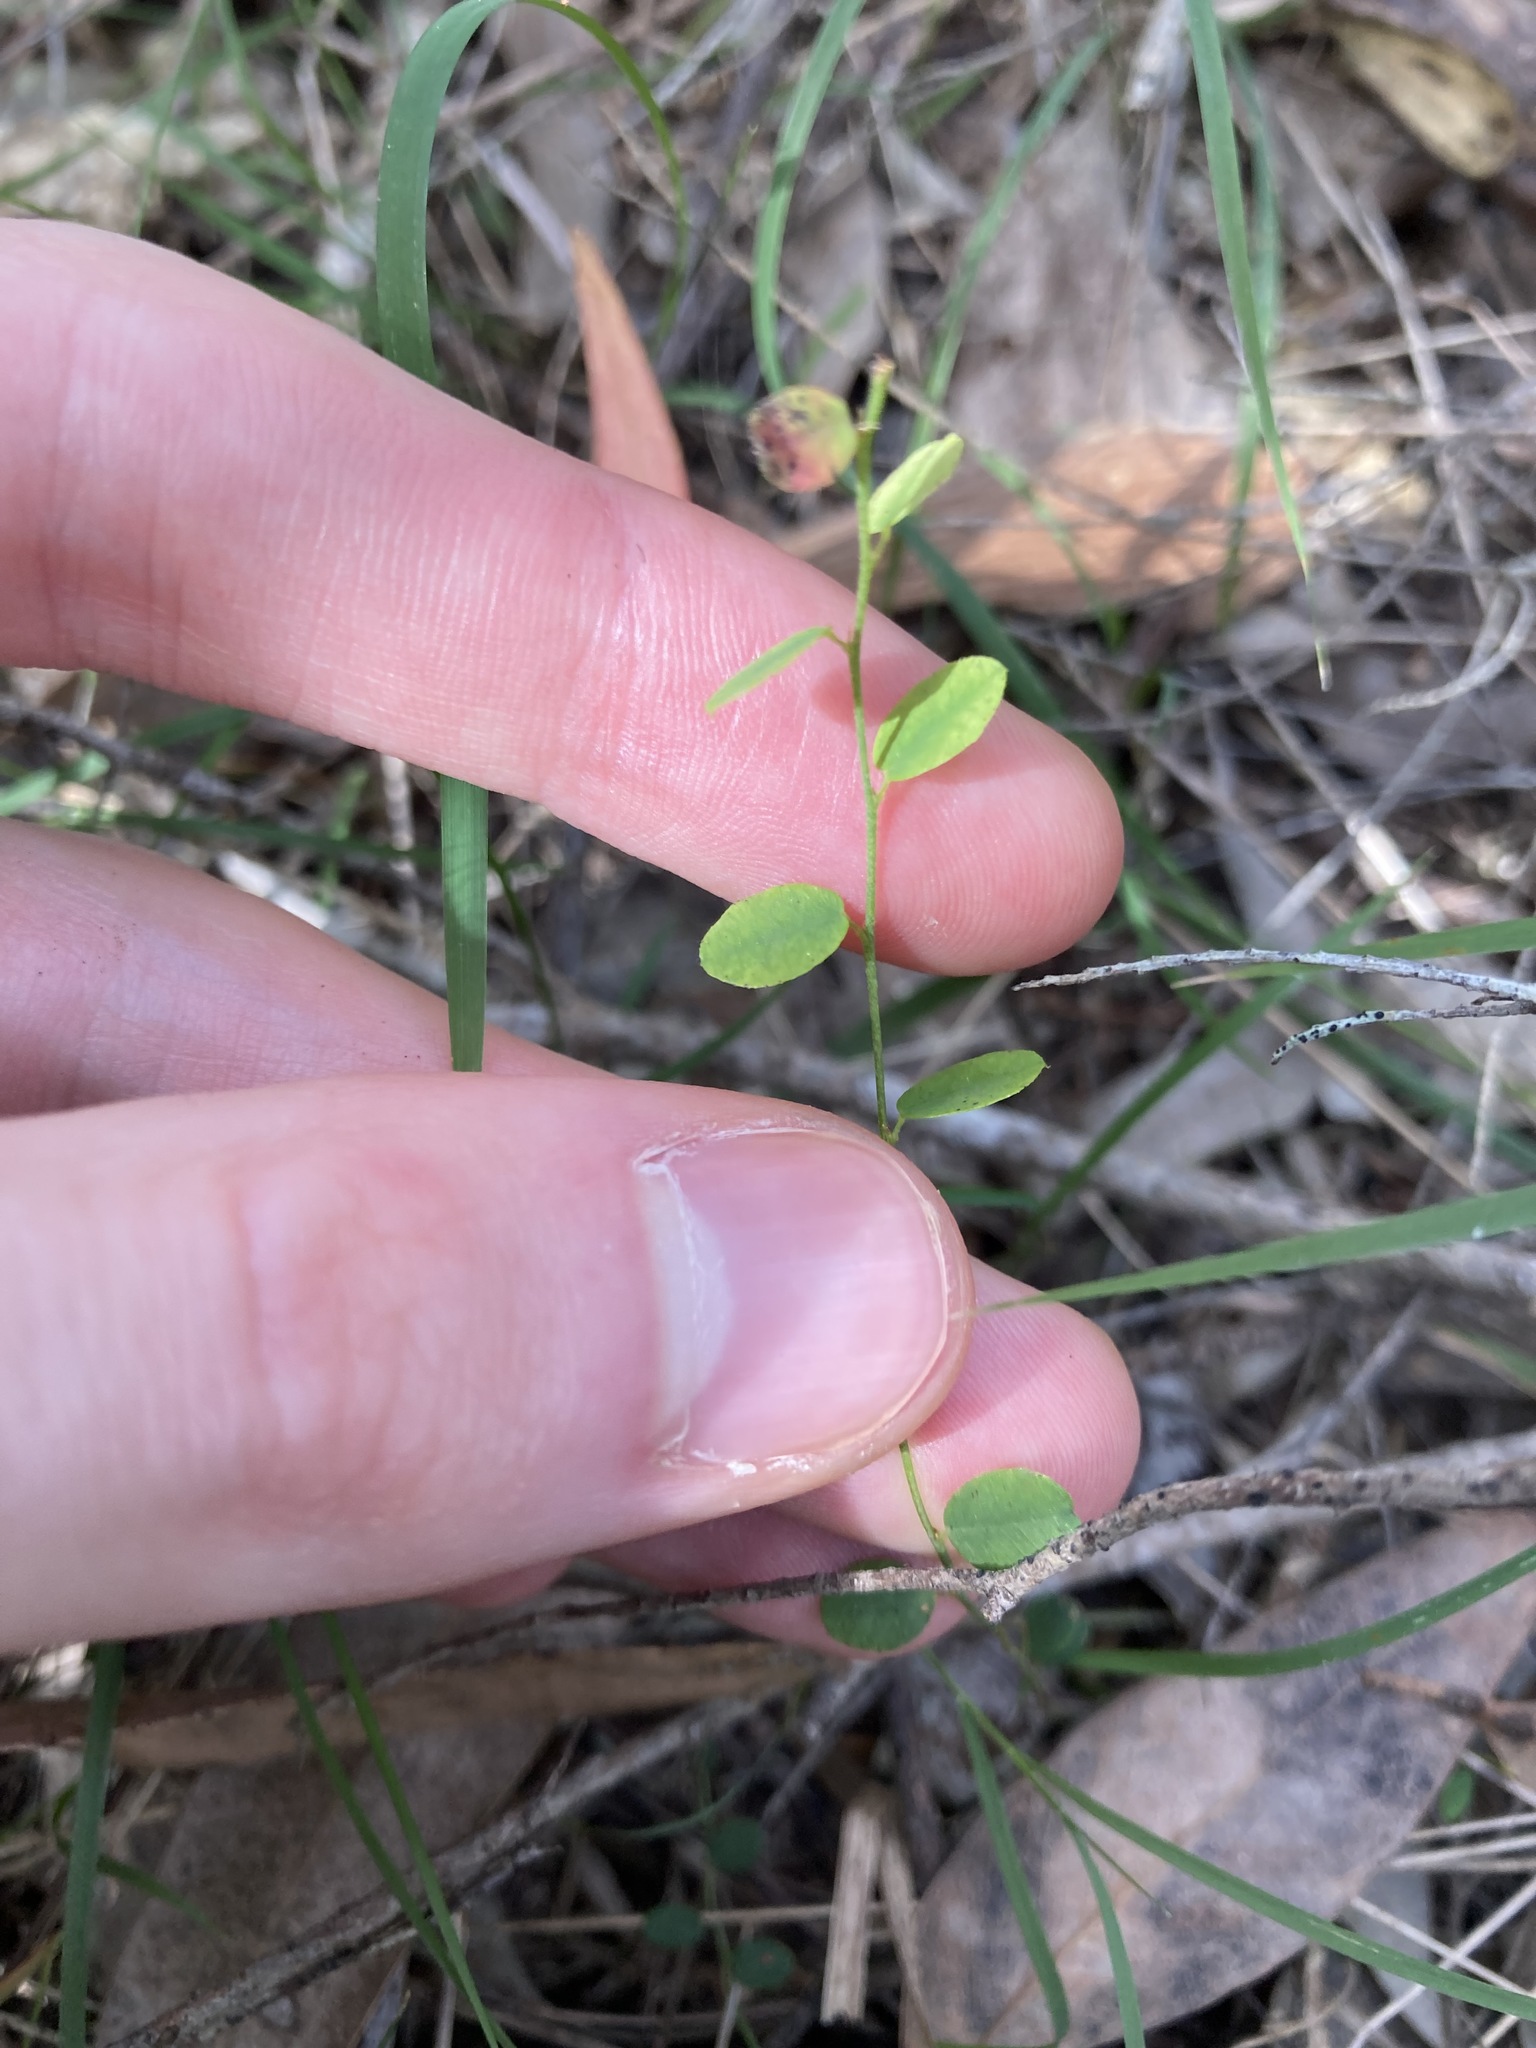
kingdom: Plantae
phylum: Tracheophyta
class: Magnoliopsida
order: Fabales
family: Fabaceae
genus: Bossiaea
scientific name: Bossiaea prostrata
